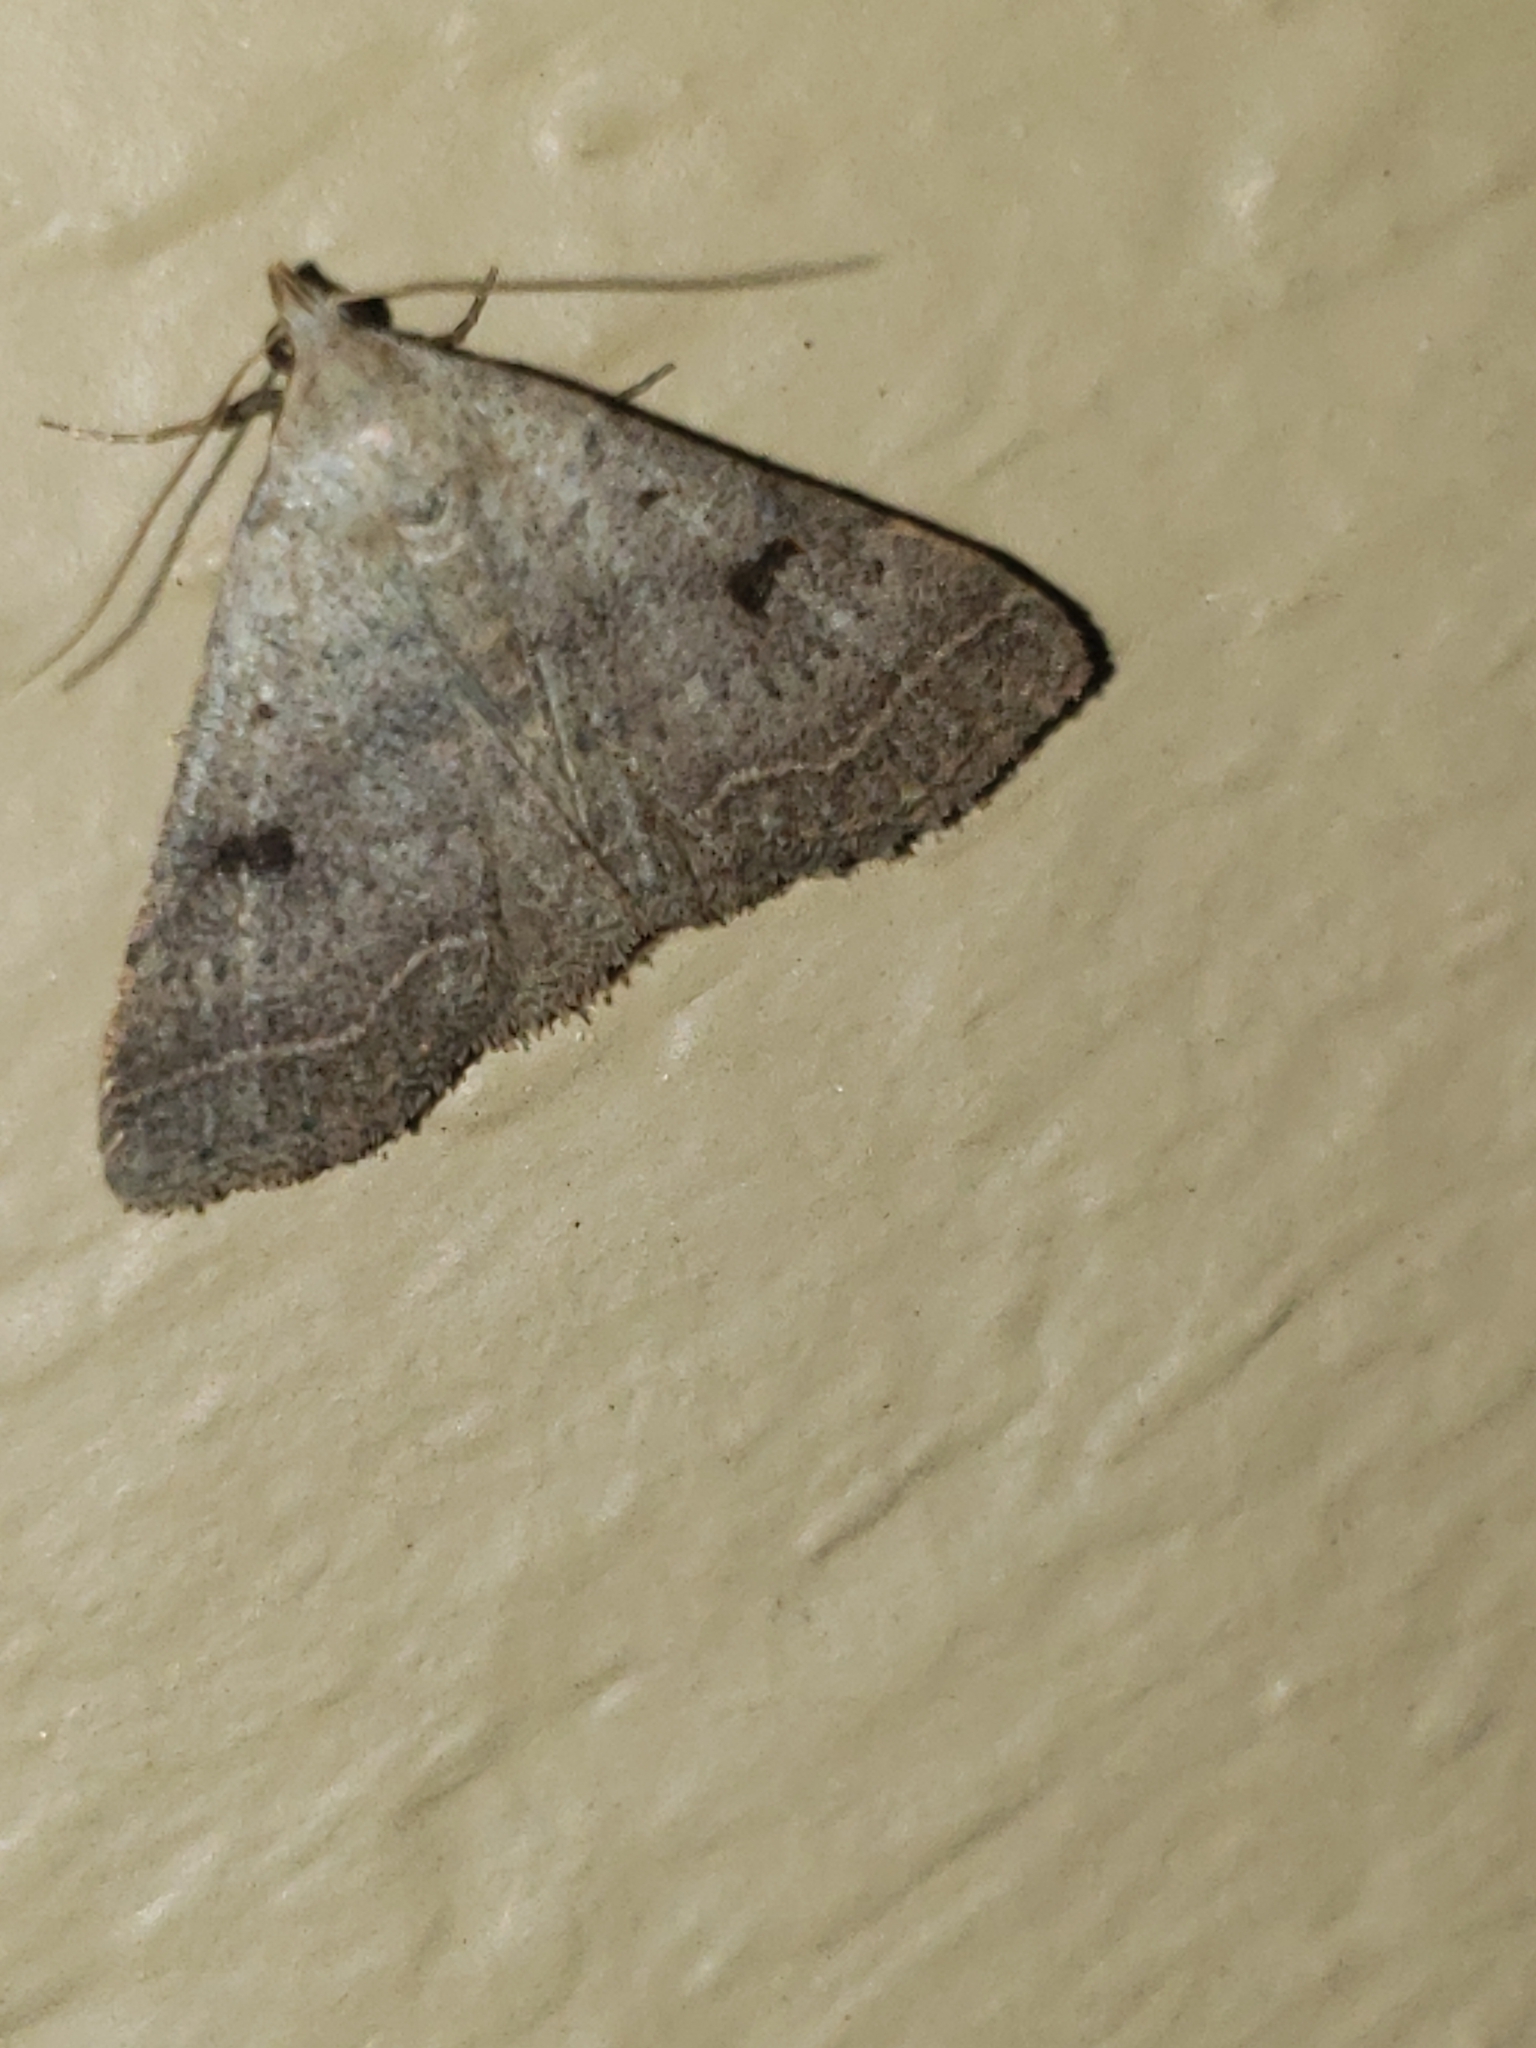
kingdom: Animalia
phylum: Arthropoda
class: Insecta
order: Lepidoptera
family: Erebidae
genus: Bleptina
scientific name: Bleptina caradrinalis
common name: Bent-winged owlet
